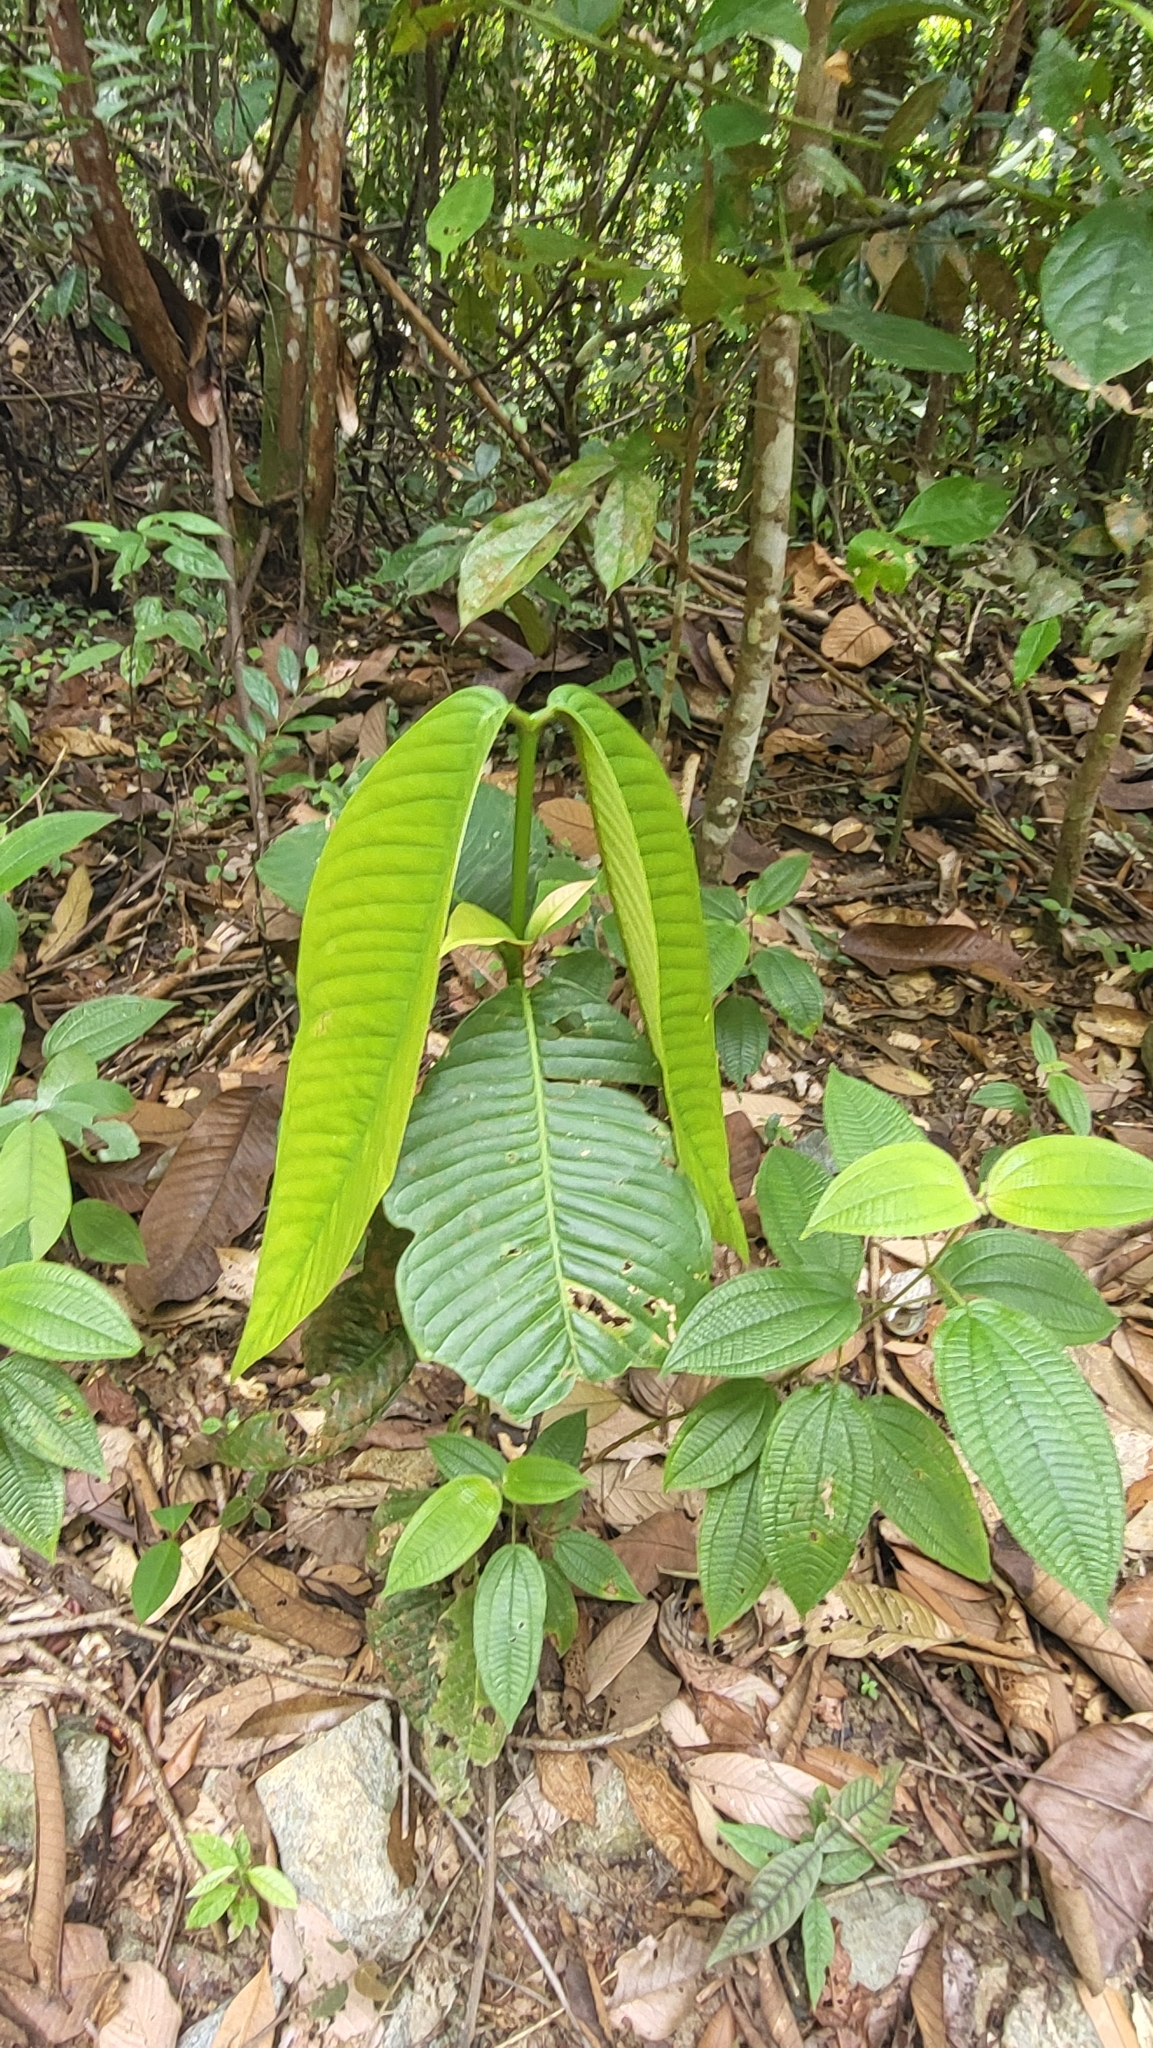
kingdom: Plantae
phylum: Tracheophyta
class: Magnoliopsida
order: Malpighiales
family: Clusiaceae
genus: Garcinia
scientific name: Garcinia griffithii
